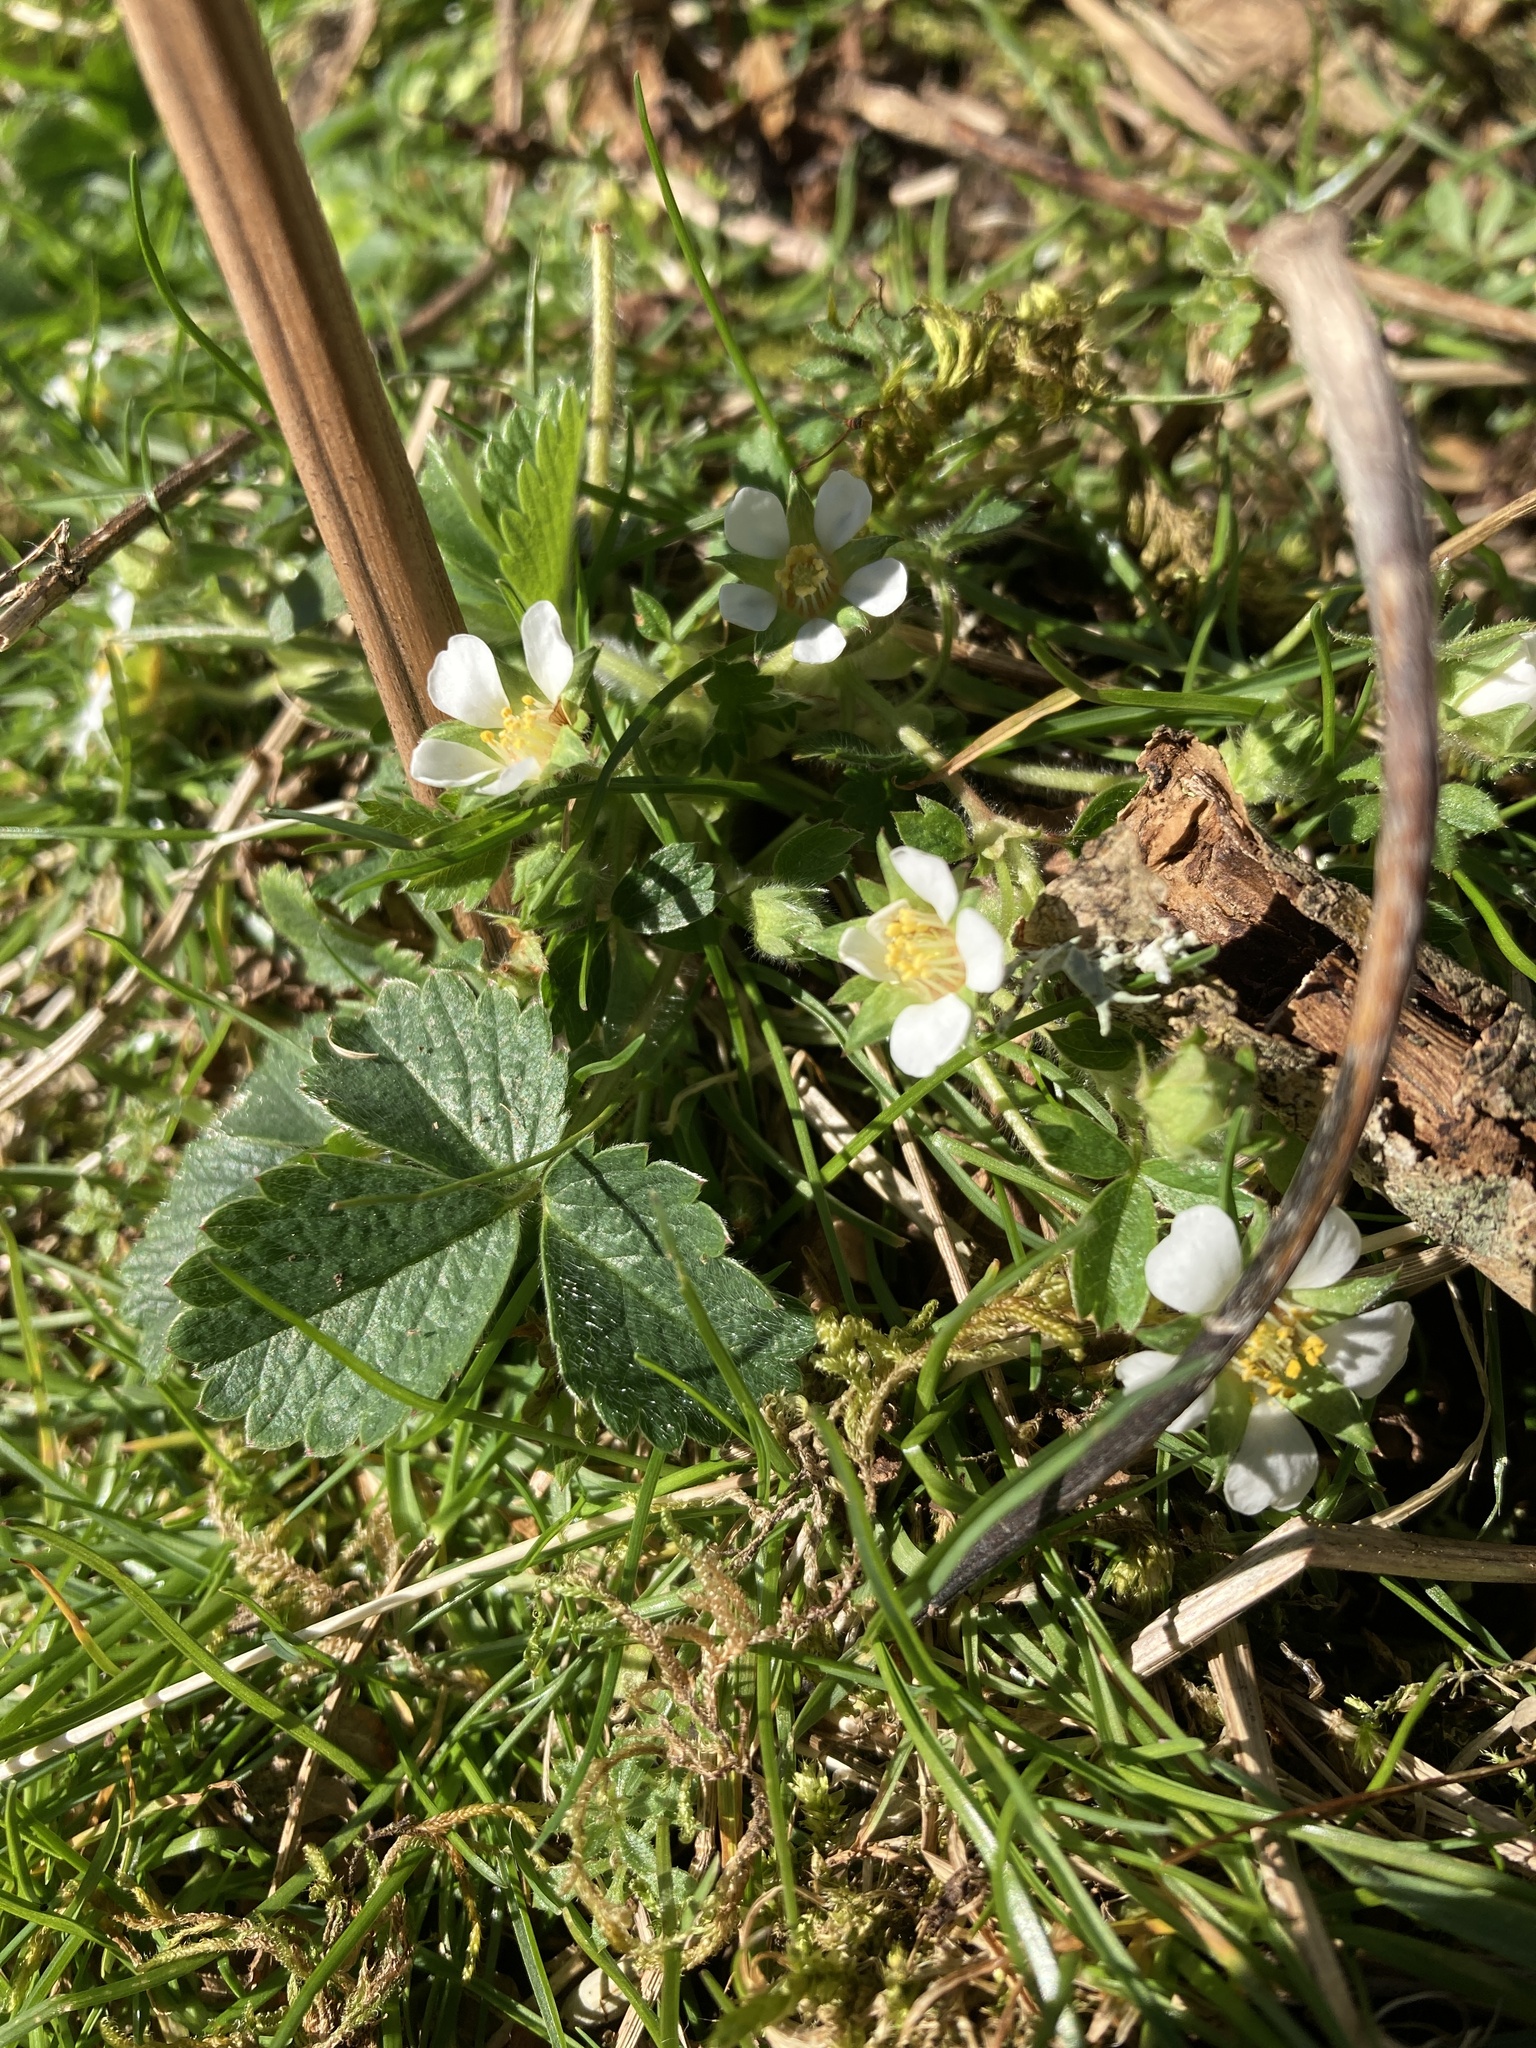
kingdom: Plantae
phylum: Tracheophyta
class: Magnoliopsida
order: Rosales
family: Rosaceae
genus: Potentilla
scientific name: Potentilla sterilis
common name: Barren strawberry
